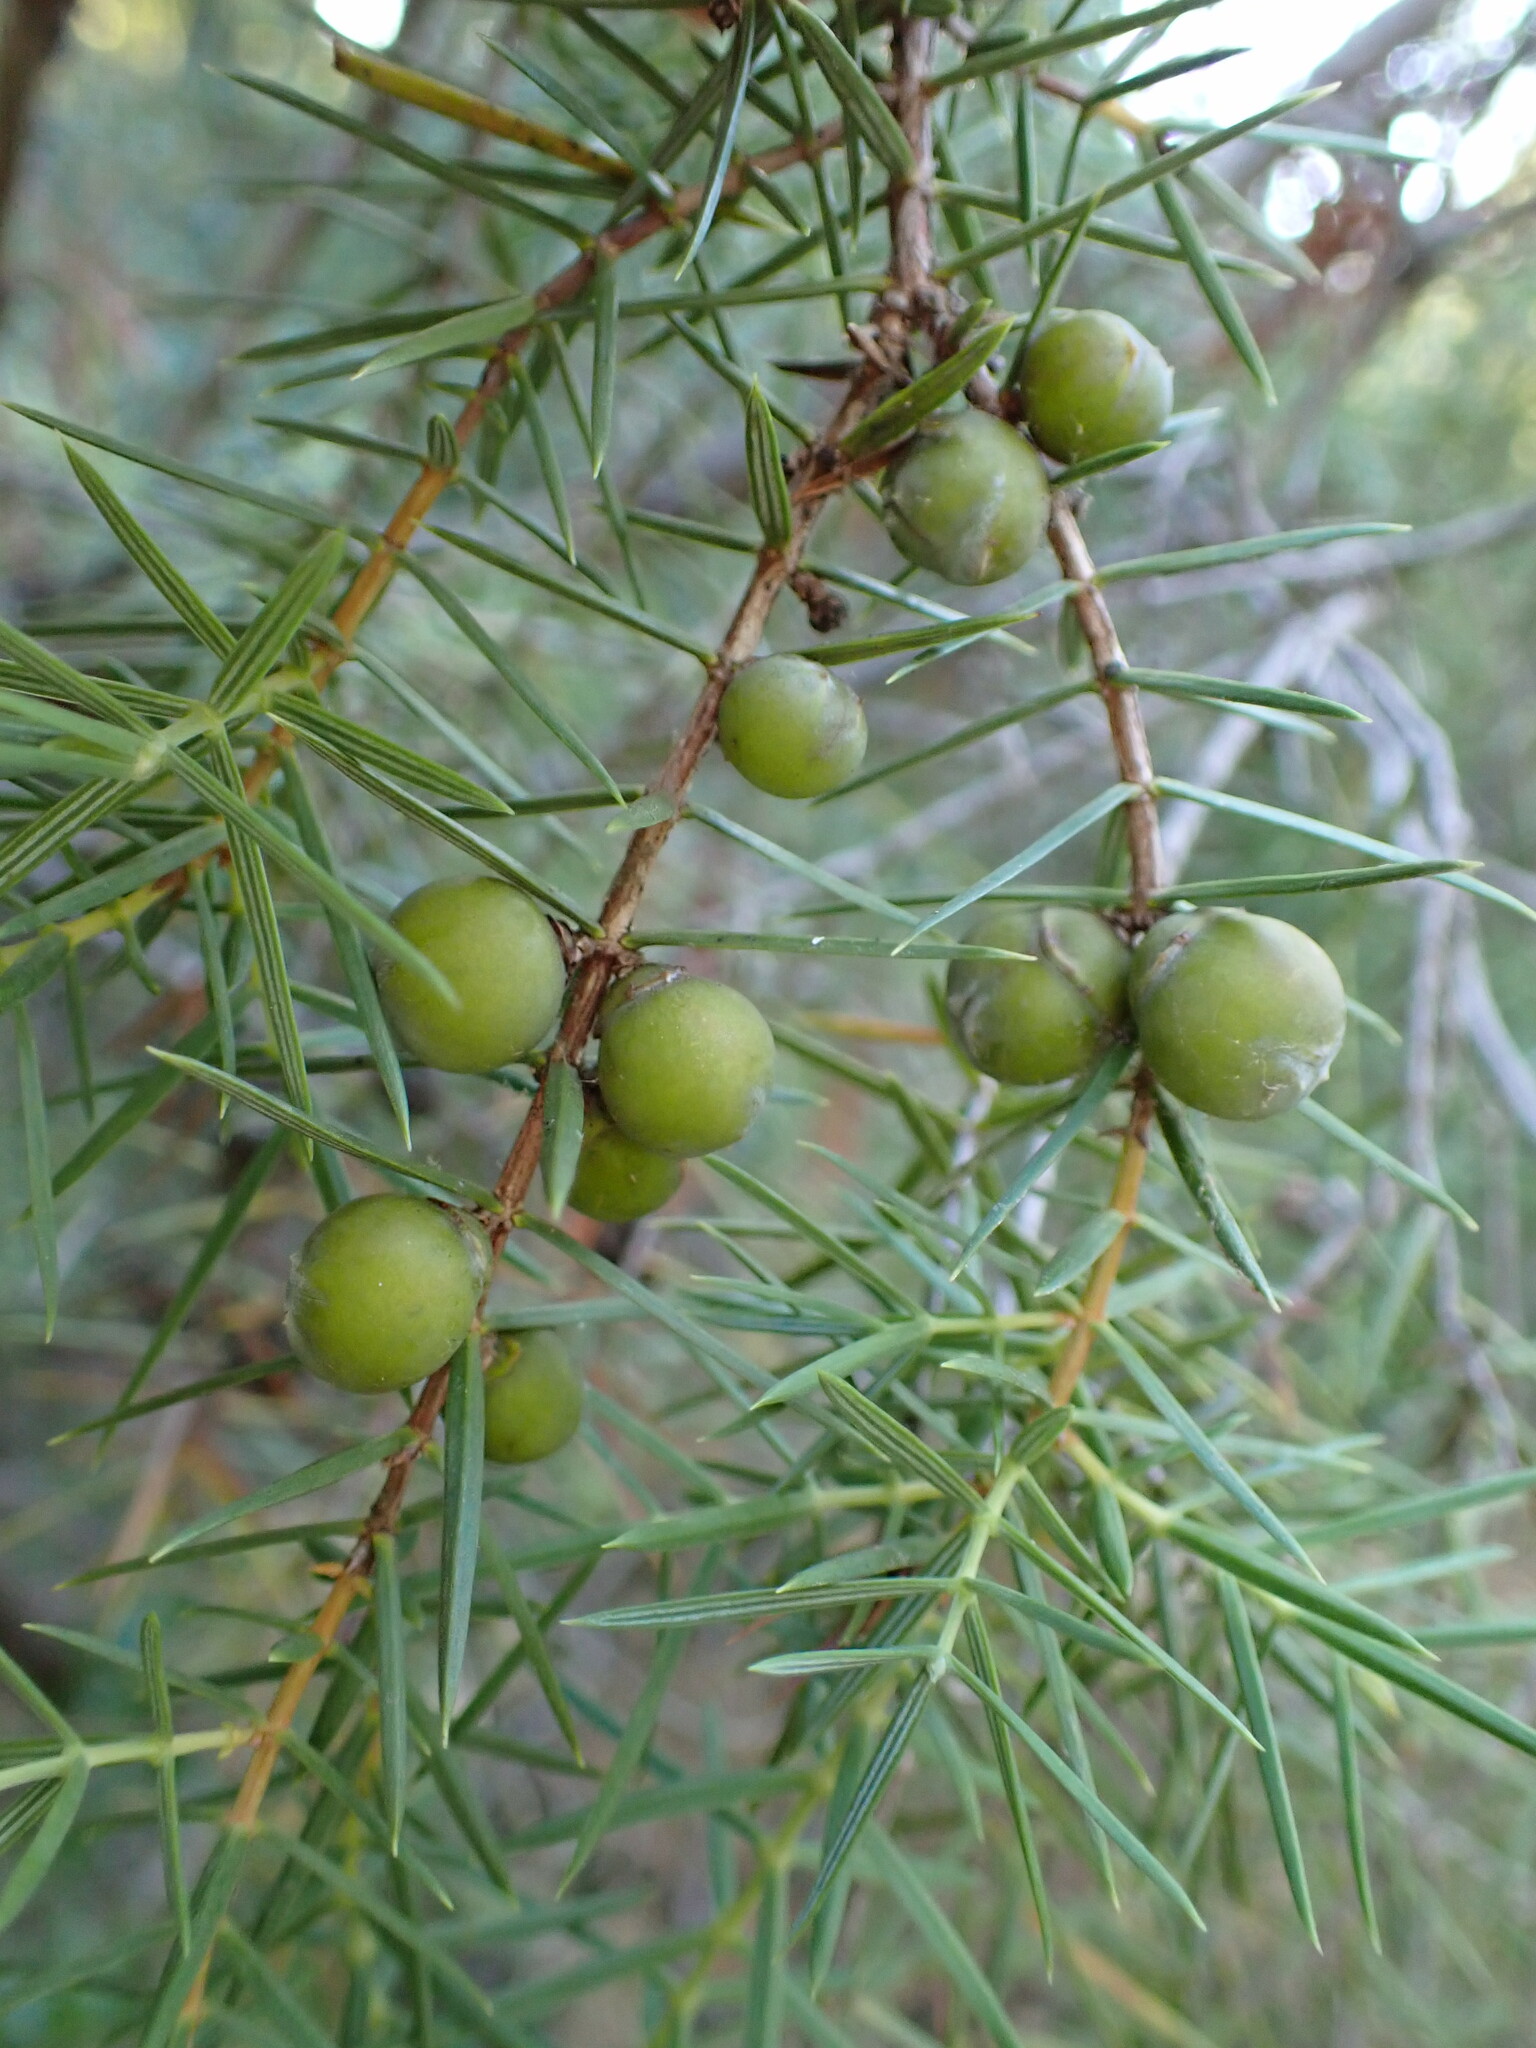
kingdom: Plantae
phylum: Tracheophyta
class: Pinopsida
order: Pinales
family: Cupressaceae
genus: Juniperus
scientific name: Juniperus oxycedrus
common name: Prickly juniper
